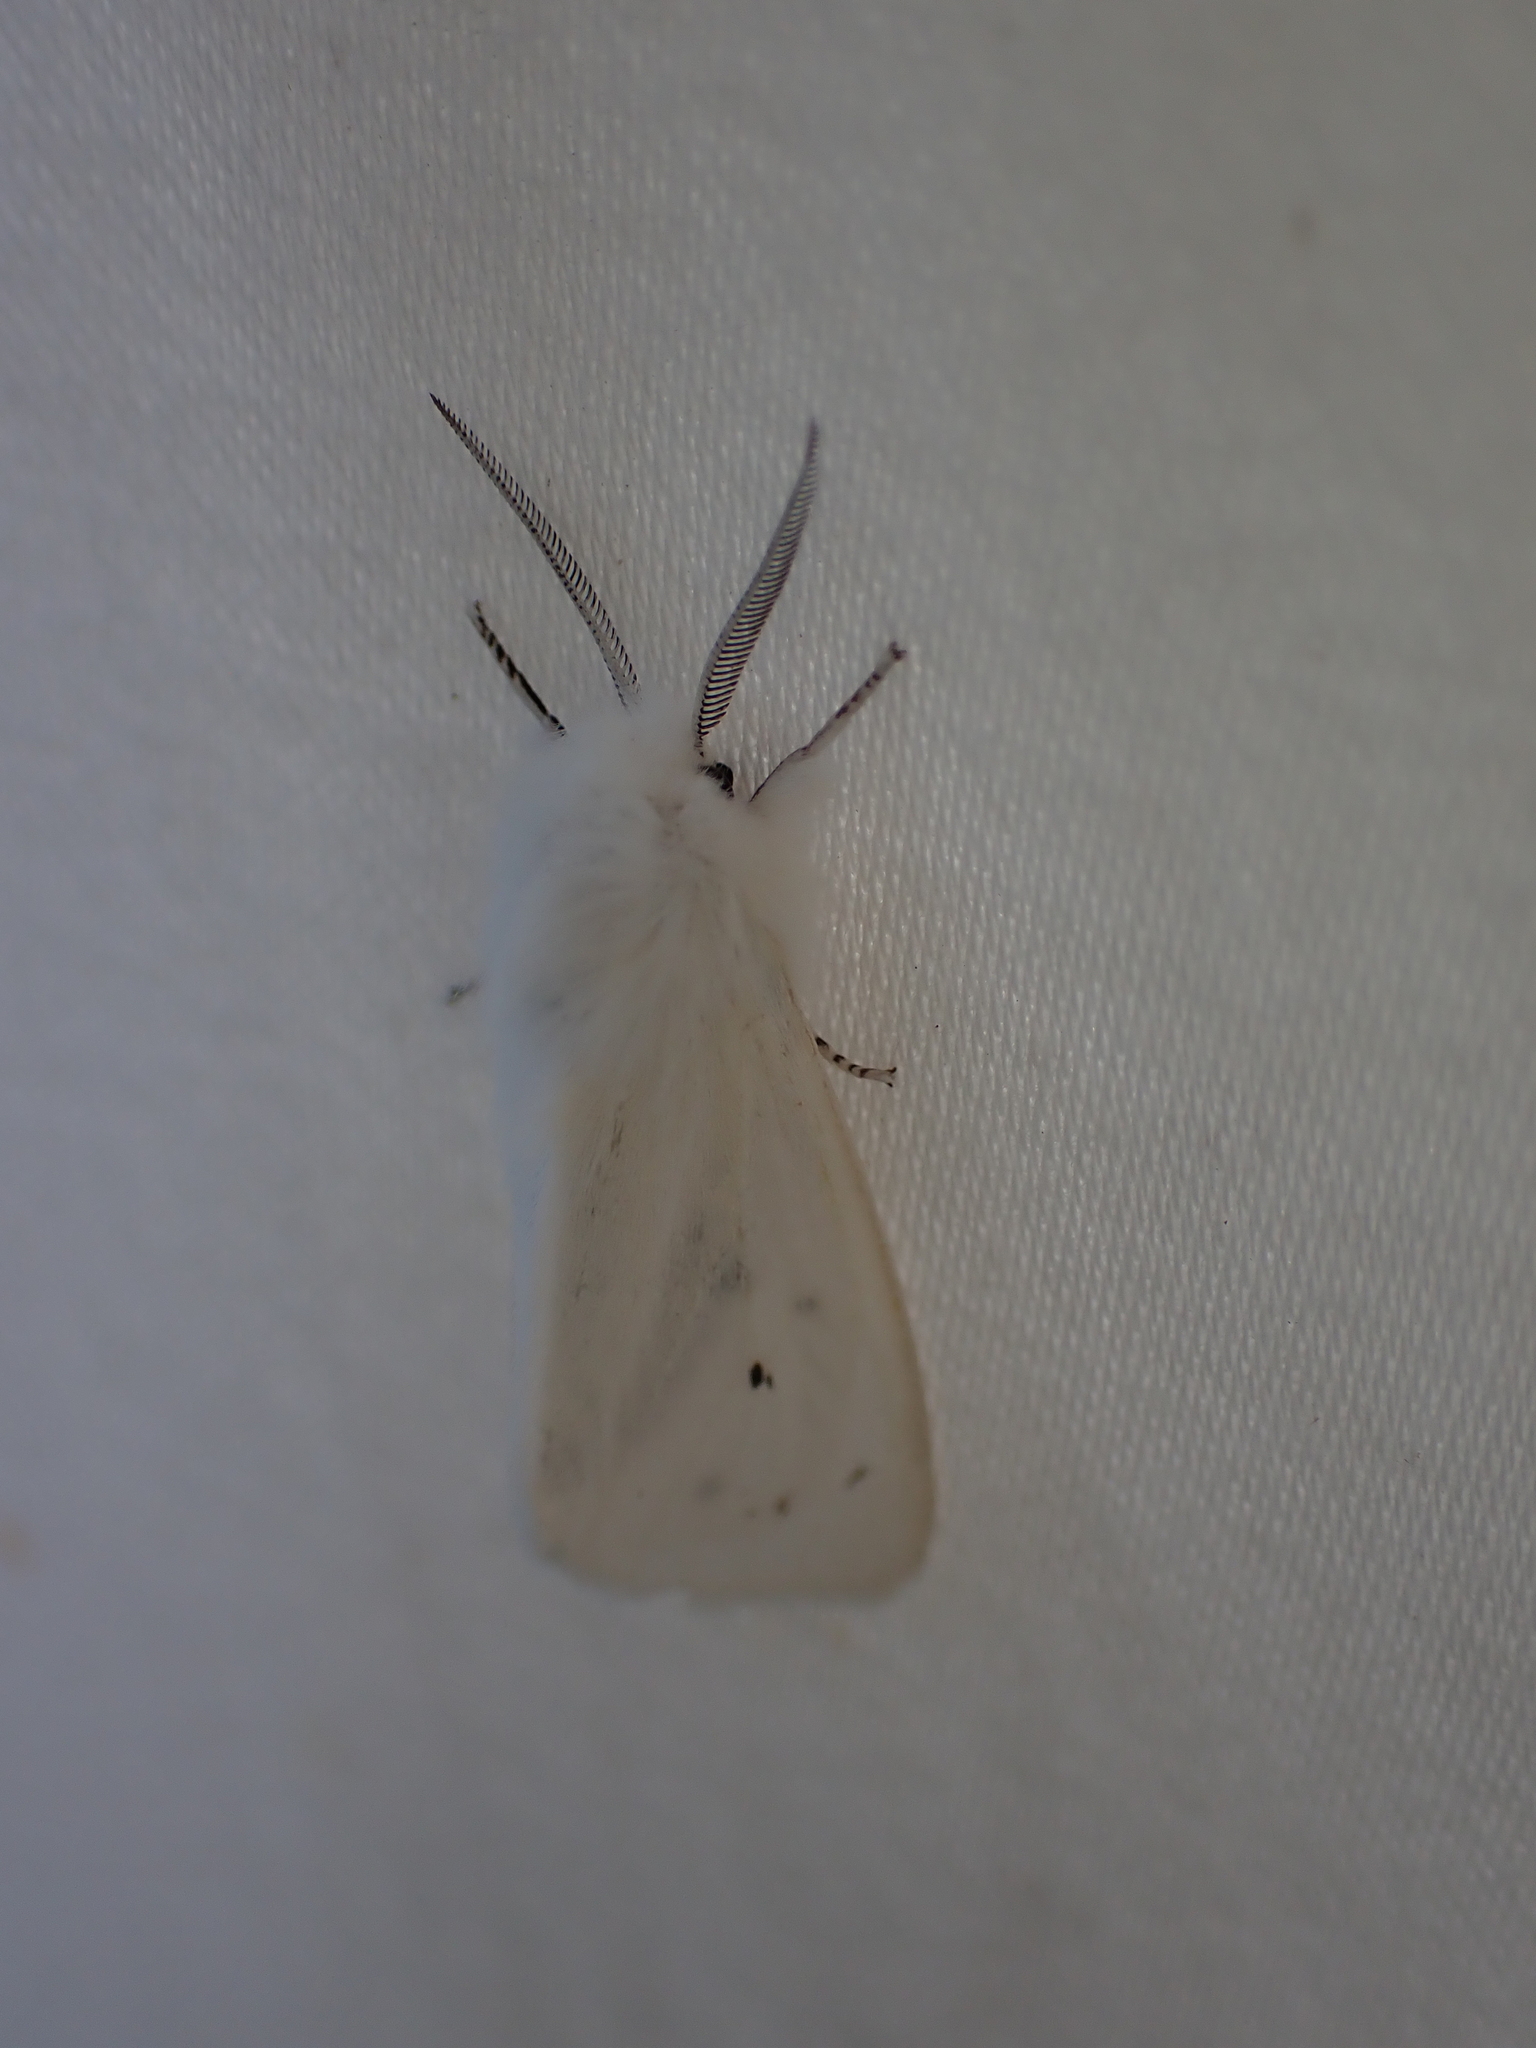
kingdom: Animalia
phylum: Arthropoda
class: Insecta
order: Lepidoptera
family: Erebidae
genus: Spilosoma
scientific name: Spilosoma virginica
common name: Virginia tiger moth
